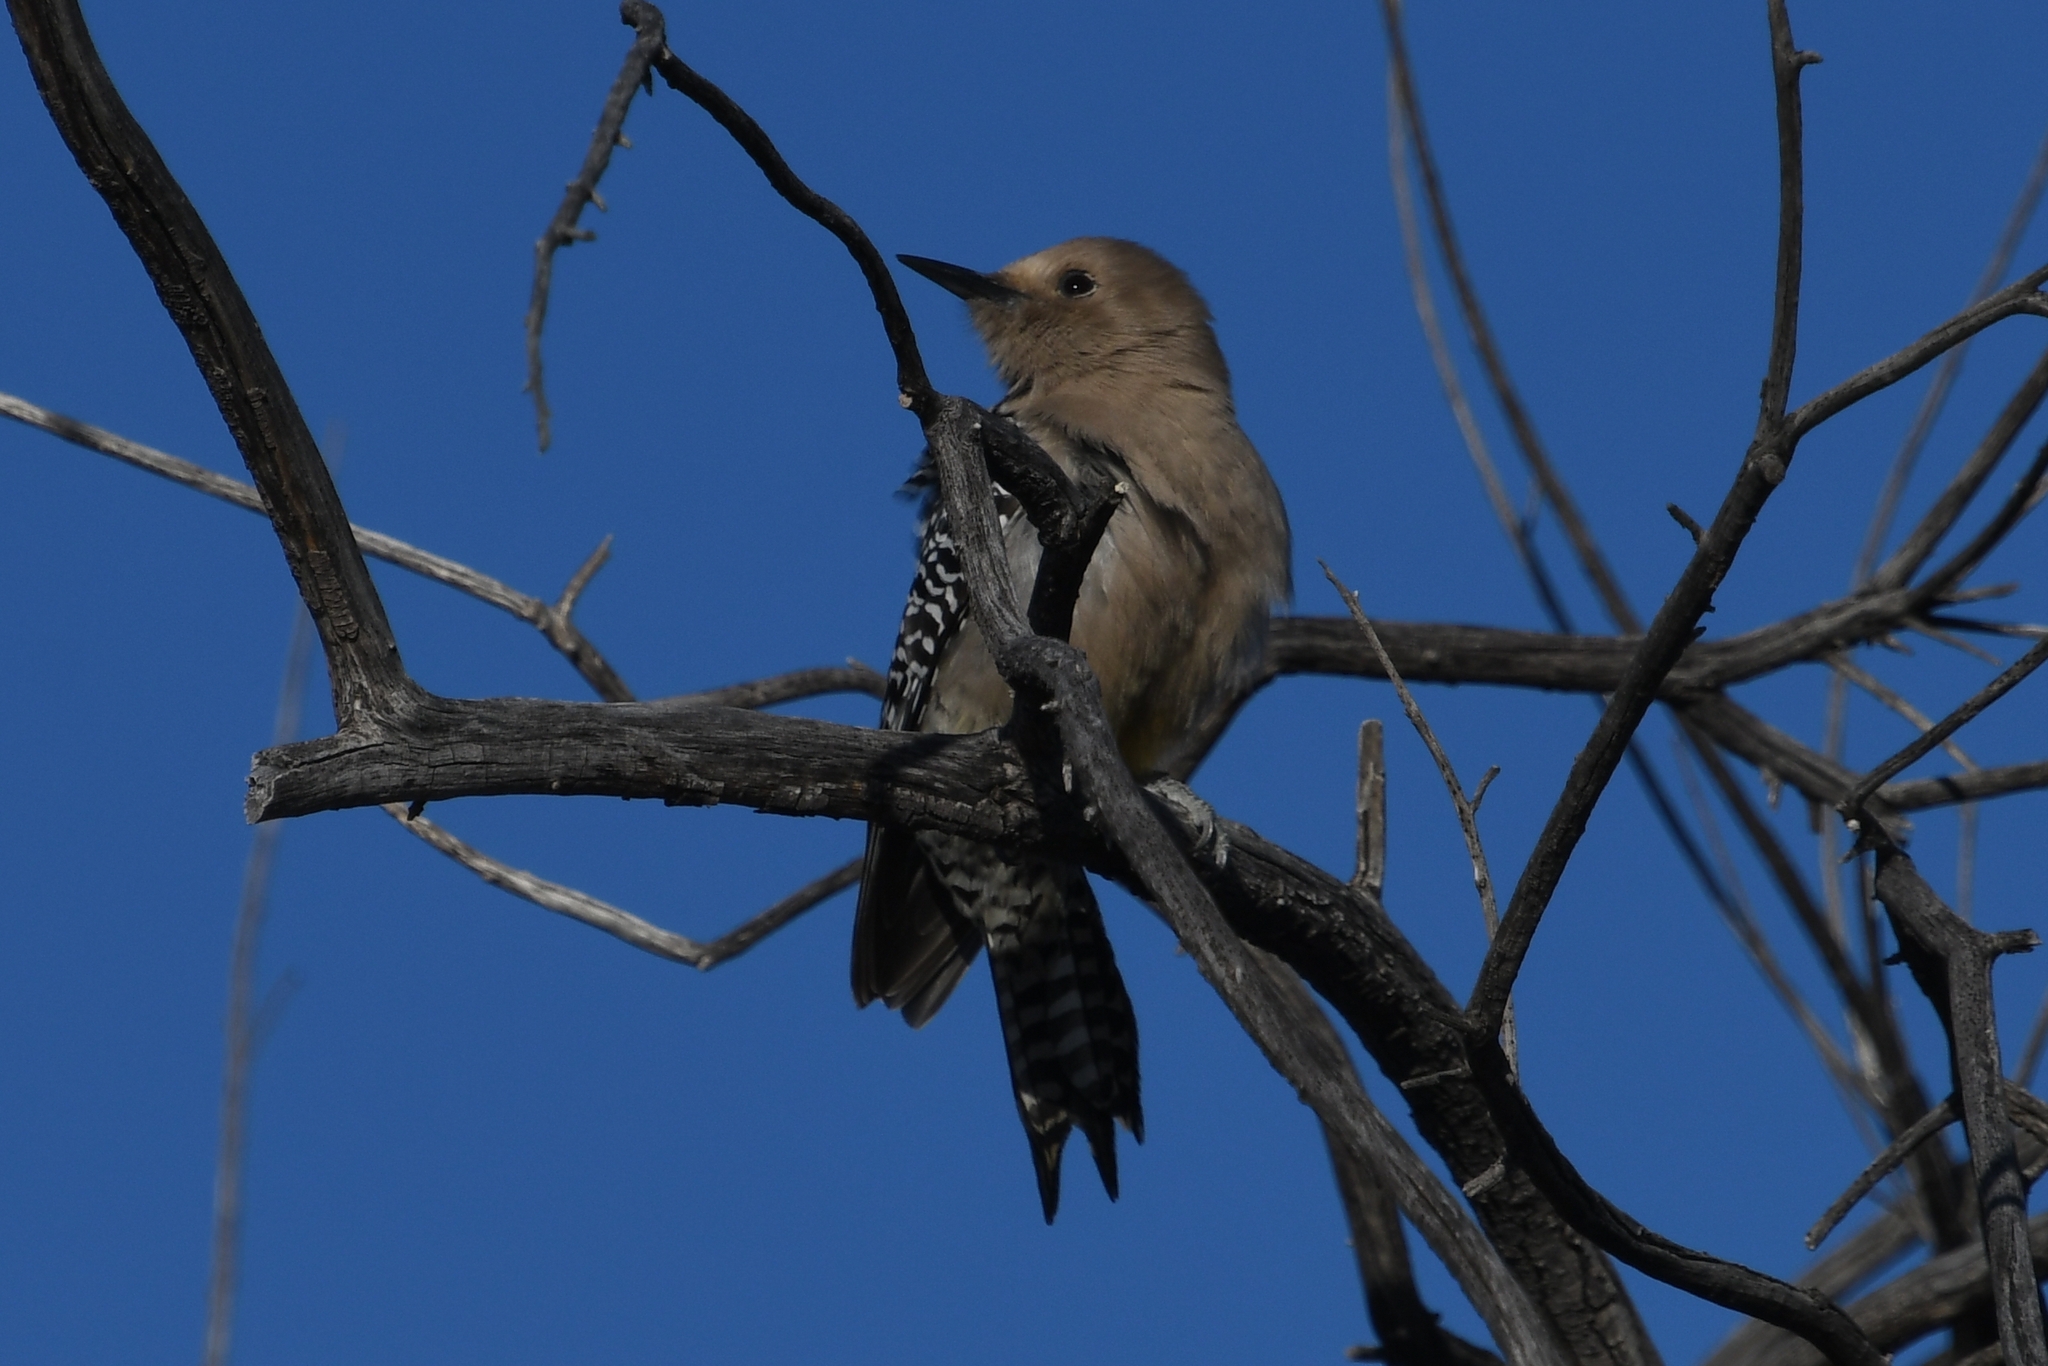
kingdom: Animalia
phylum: Chordata
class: Aves
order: Piciformes
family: Picidae
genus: Melanerpes
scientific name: Melanerpes uropygialis
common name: Gila woodpecker
